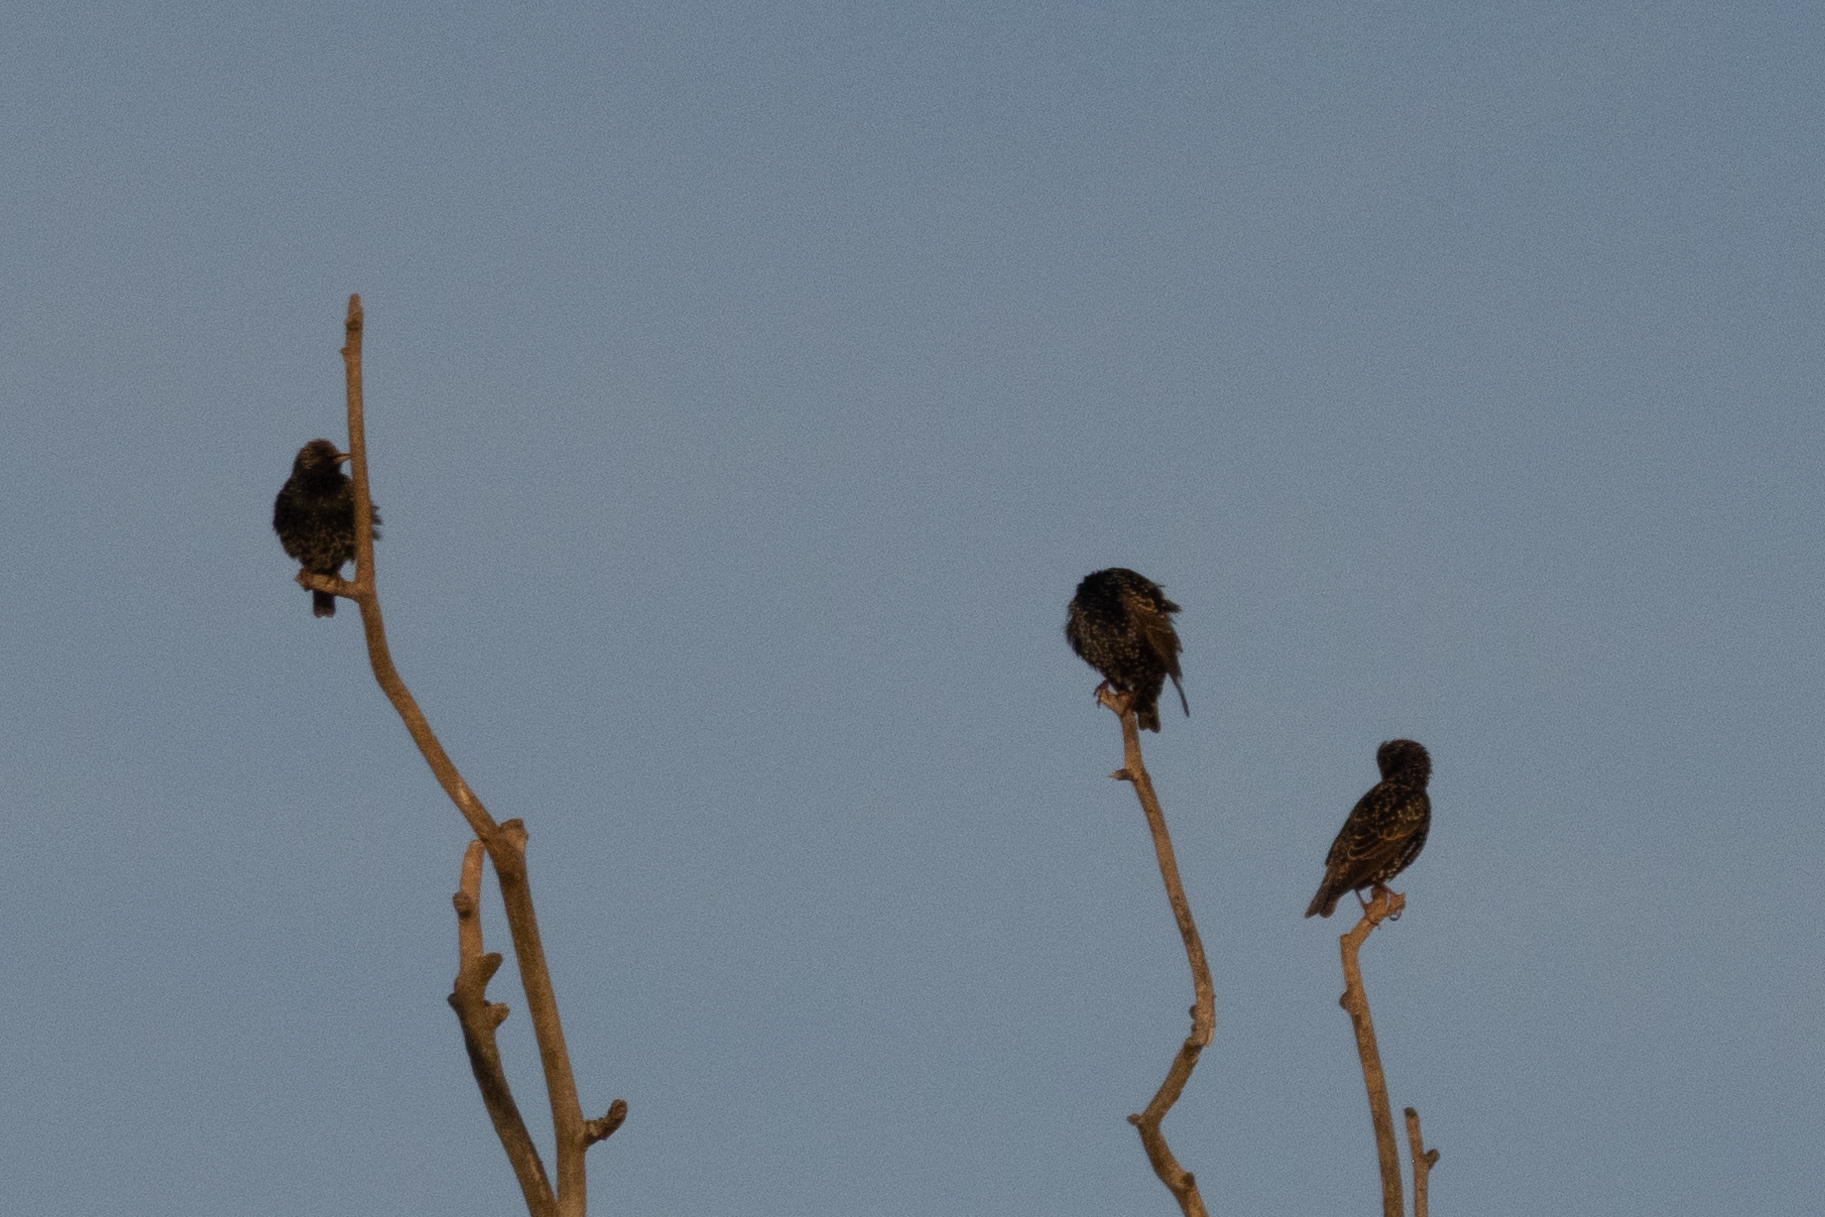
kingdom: Animalia
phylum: Chordata
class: Aves
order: Passeriformes
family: Sturnidae
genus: Sturnus
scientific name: Sturnus vulgaris
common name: Common starling
